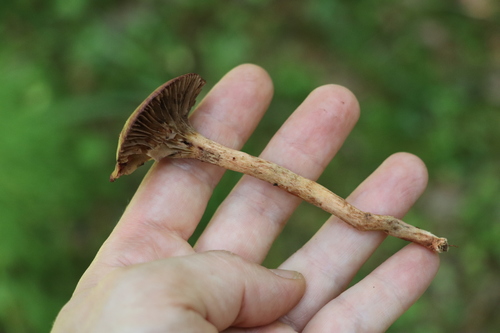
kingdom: Fungi
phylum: Basidiomycota
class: Agaricomycetes
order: Boletales
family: Gomphidiaceae
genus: Chroogomphus
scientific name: Chroogomphus
